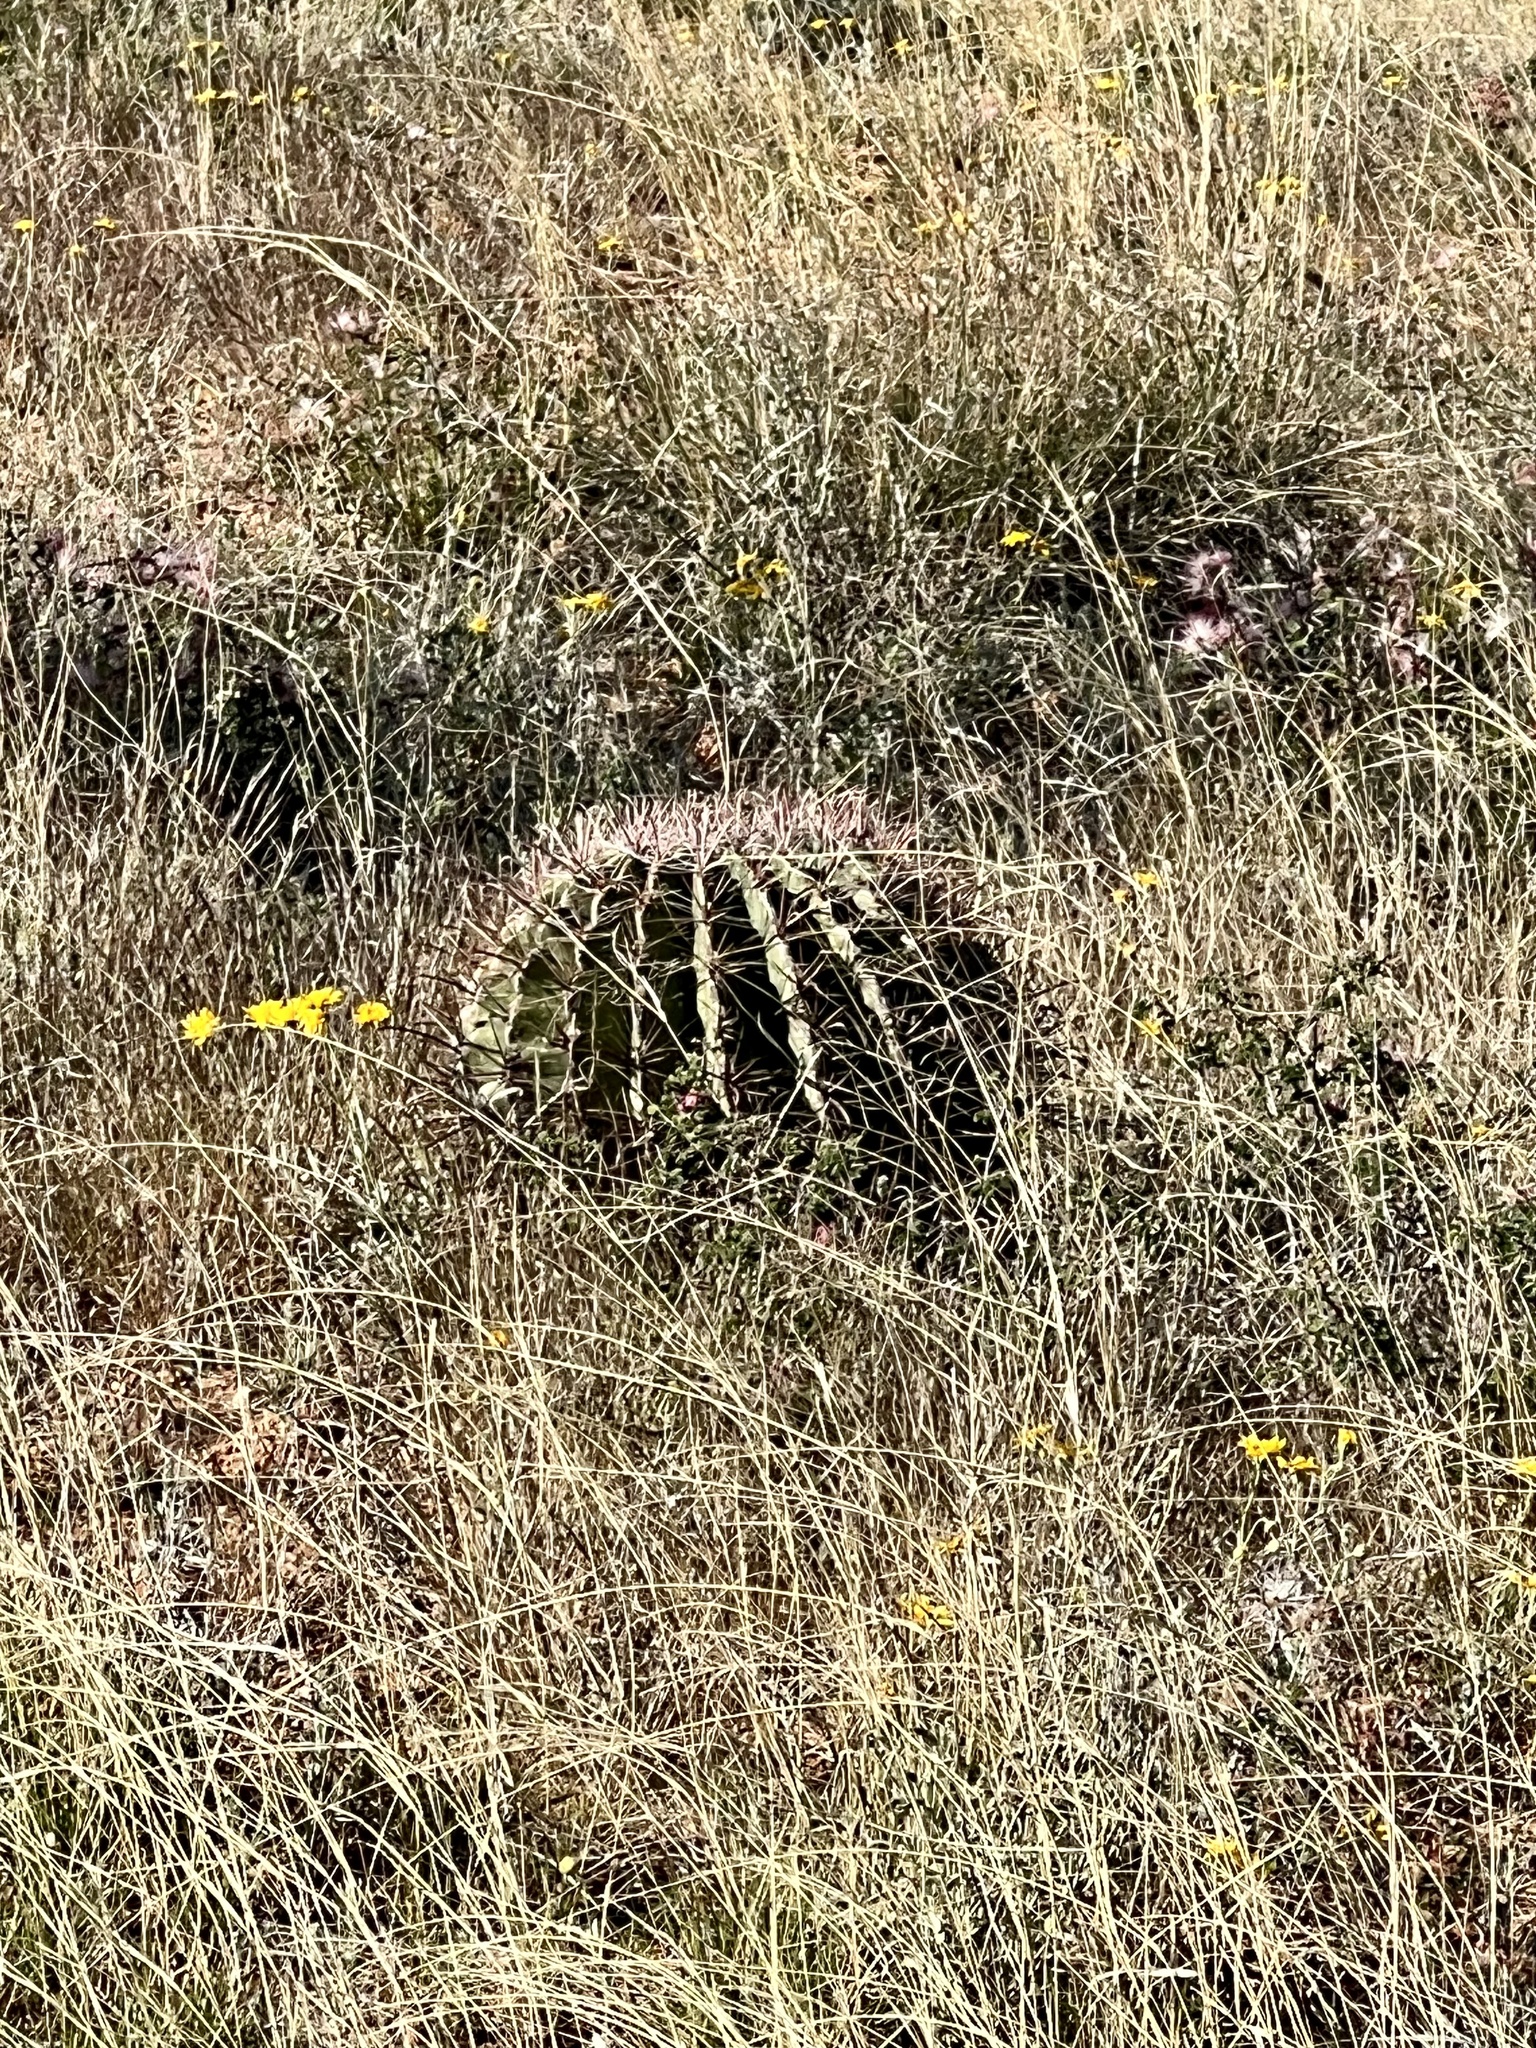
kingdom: Plantae
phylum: Tracheophyta
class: Magnoliopsida
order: Caryophyllales
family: Cactaceae
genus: Ferocactus
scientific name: Ferocactus wislizeni
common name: Candy barrel cactus
